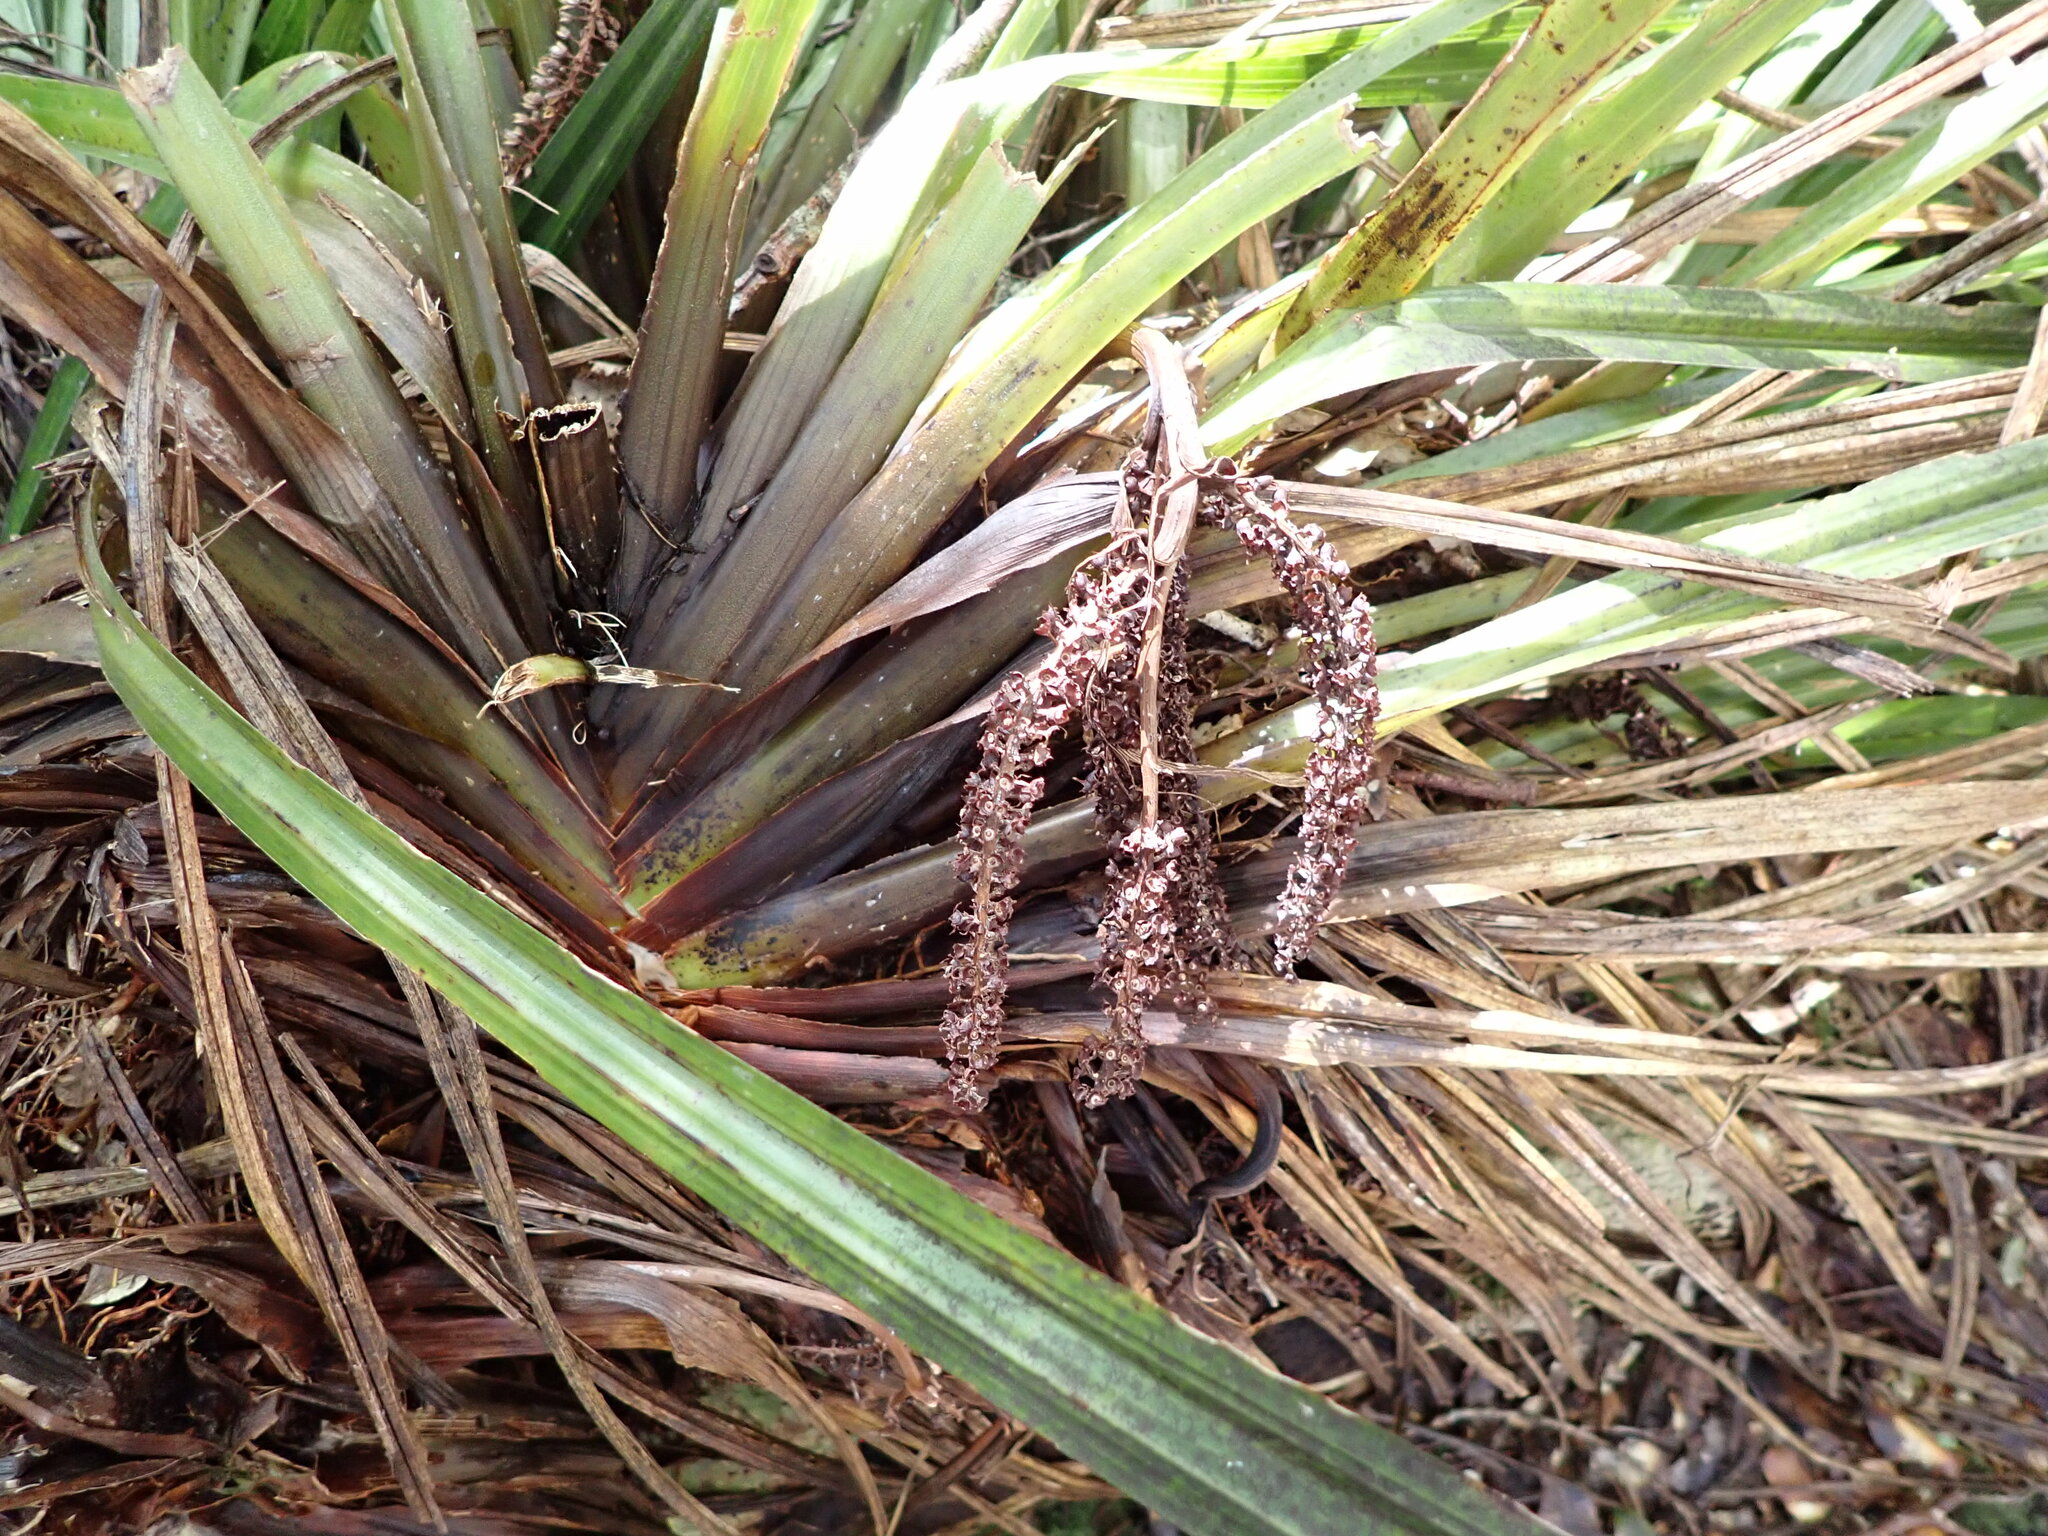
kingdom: Plantae
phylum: Tracheophyta
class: Liliopsida
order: Asparagales
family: Asteliaceae
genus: Astelia
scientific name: Astelia microsperma
